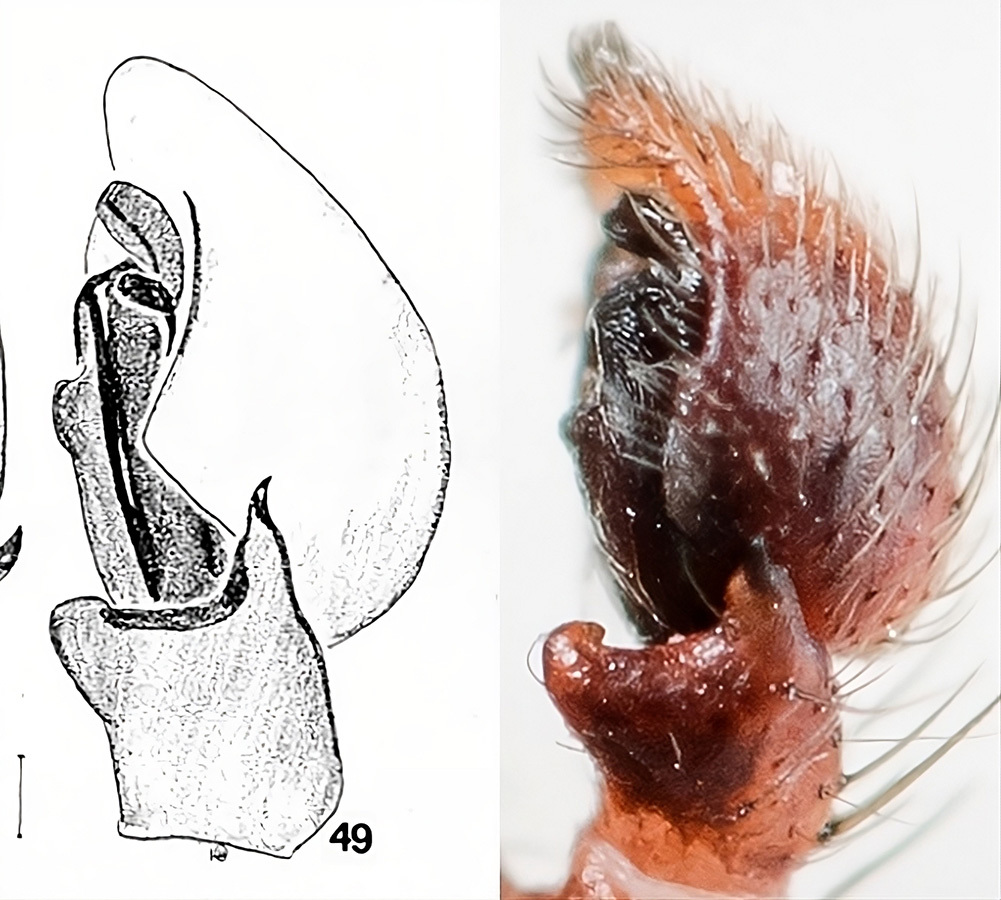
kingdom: Animalia
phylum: Arthropoda
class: Arachnida
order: Araneae
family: Thomisidae
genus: Spiracme
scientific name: Spiracme mongolica
